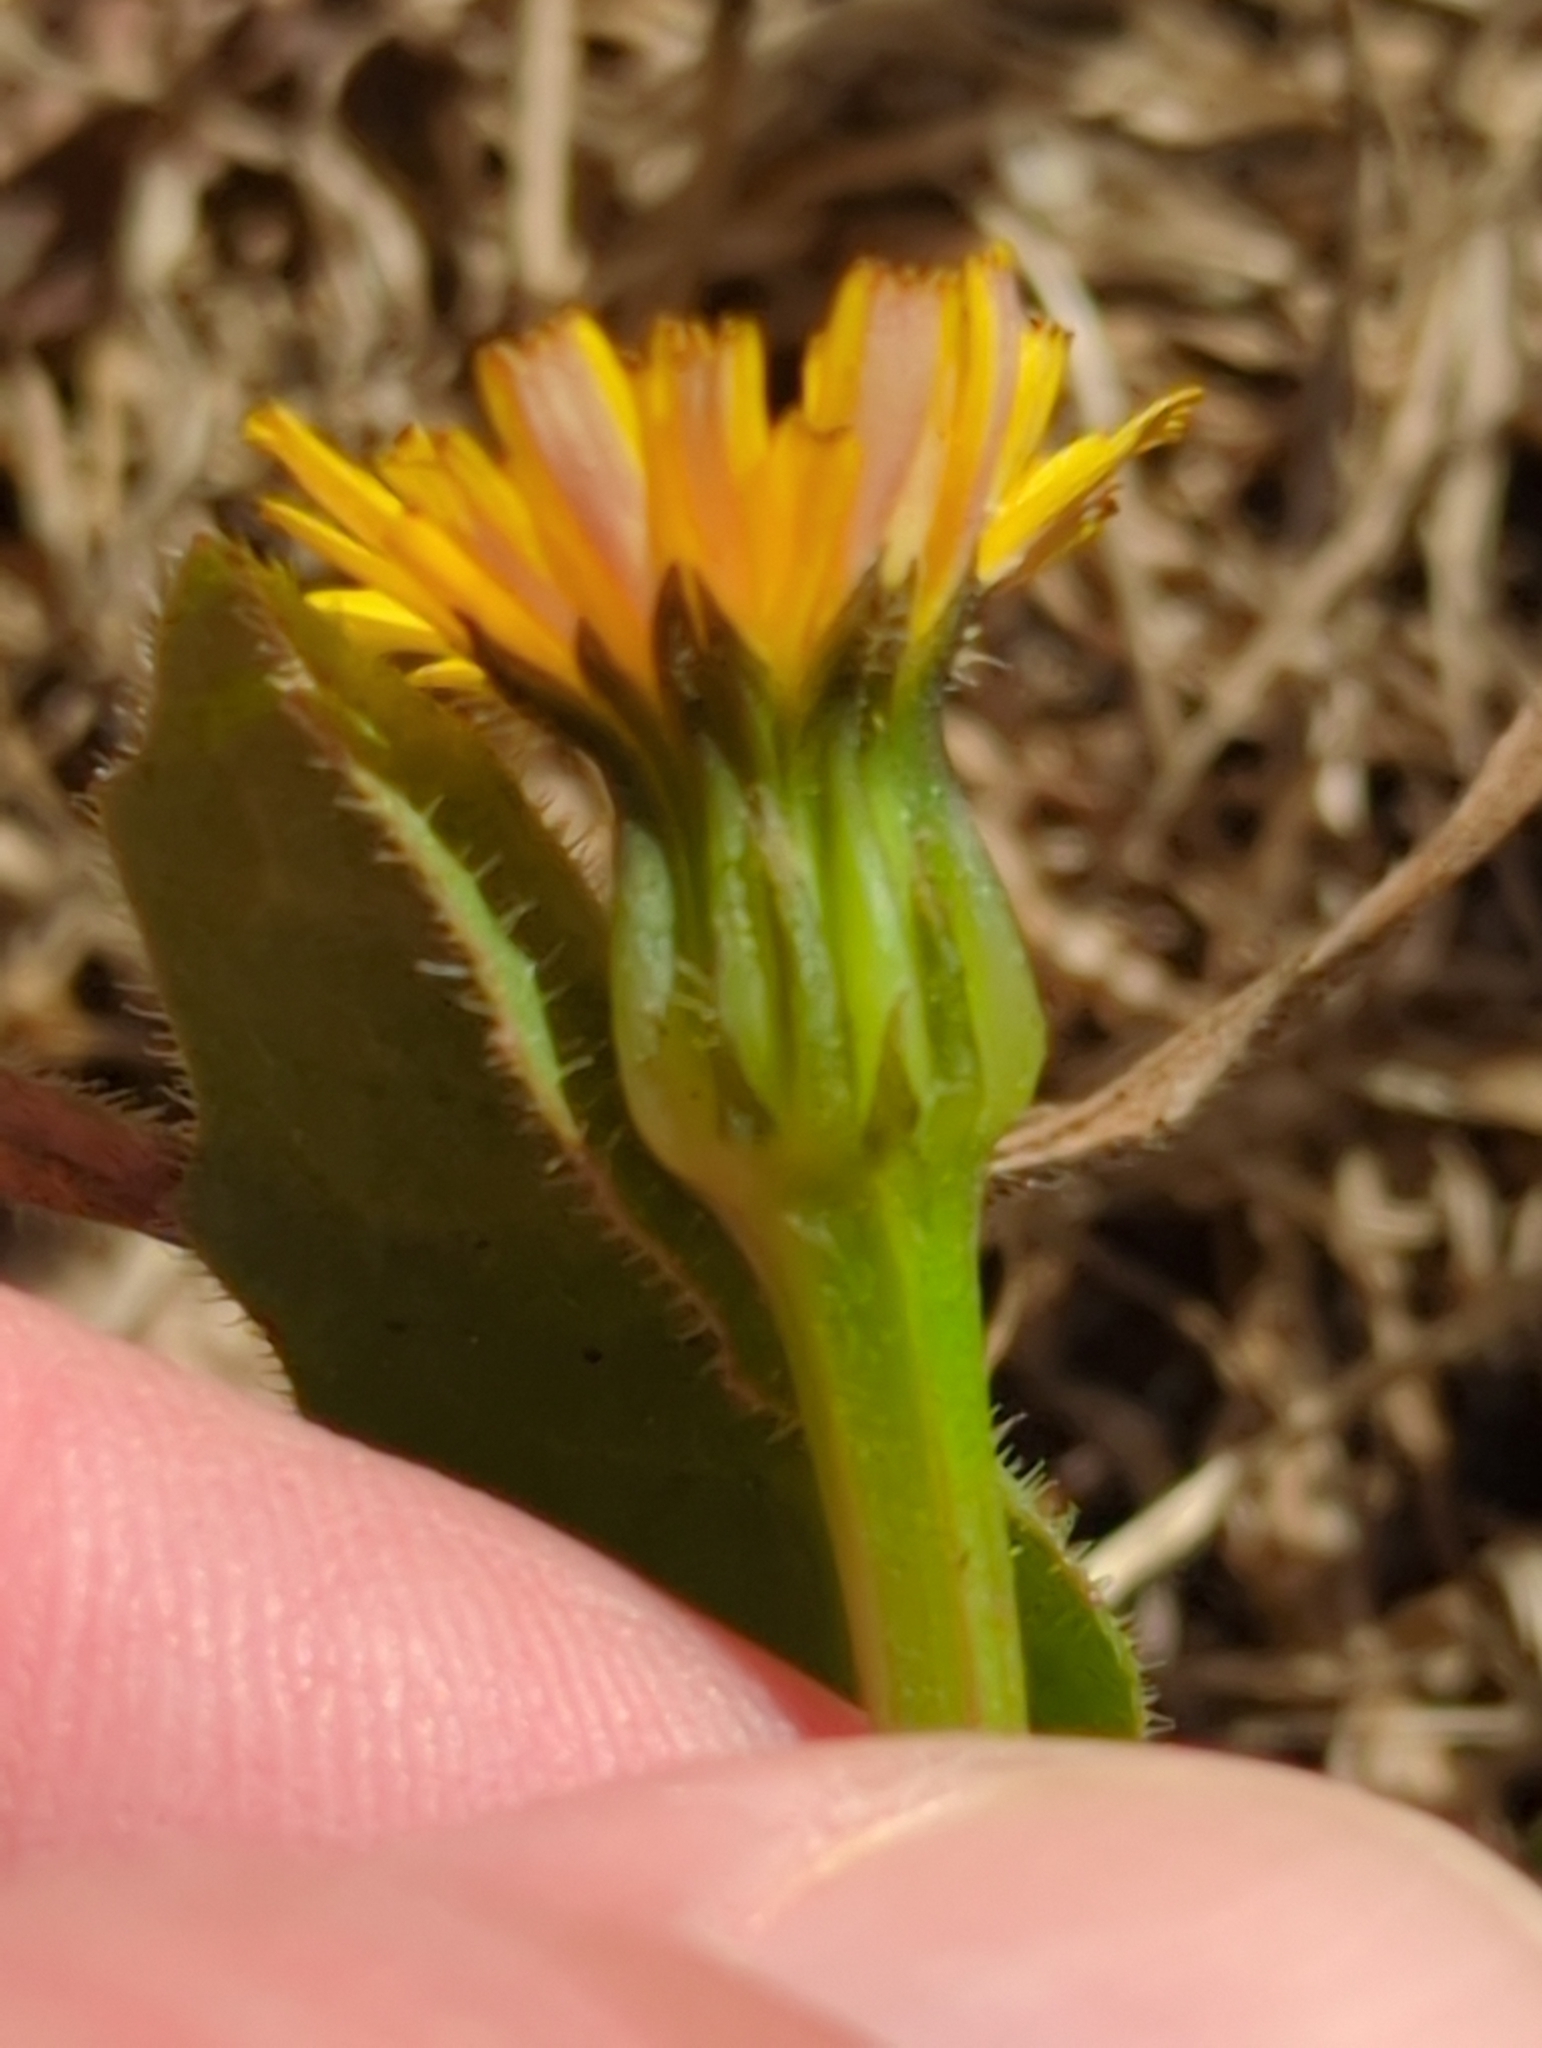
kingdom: Plantae
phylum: Tracheophyta
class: Magnoliopsida
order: Asterales
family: Asteraceae
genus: Hedypnois
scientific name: Hedypnois rhagadioloides
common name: Cretan weed
